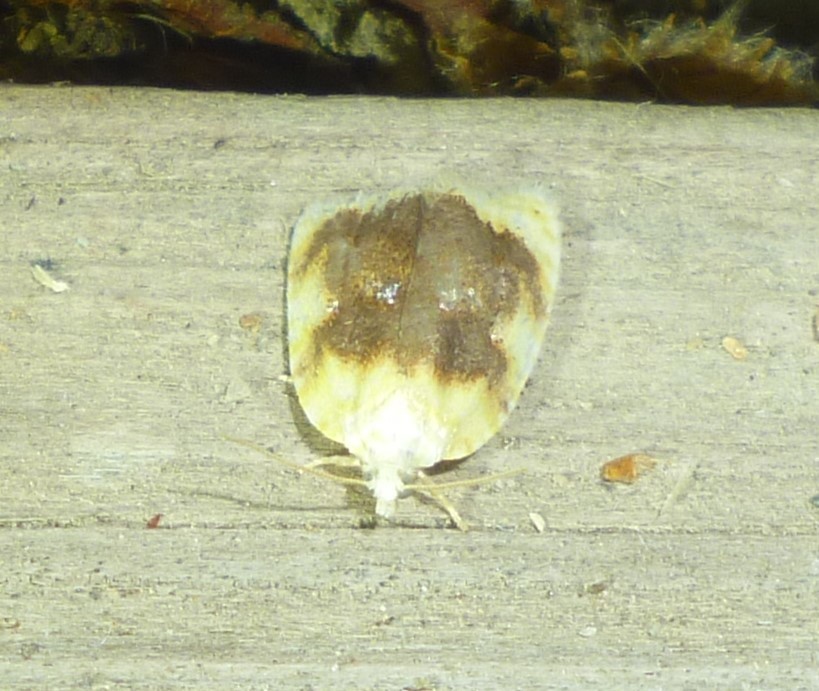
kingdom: Animalia
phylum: Arthropoda
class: Insecta
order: Lepidoptera
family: Tortricidae
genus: Acleris
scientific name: Acleris semipurpurana
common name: Oak leaftier moth
